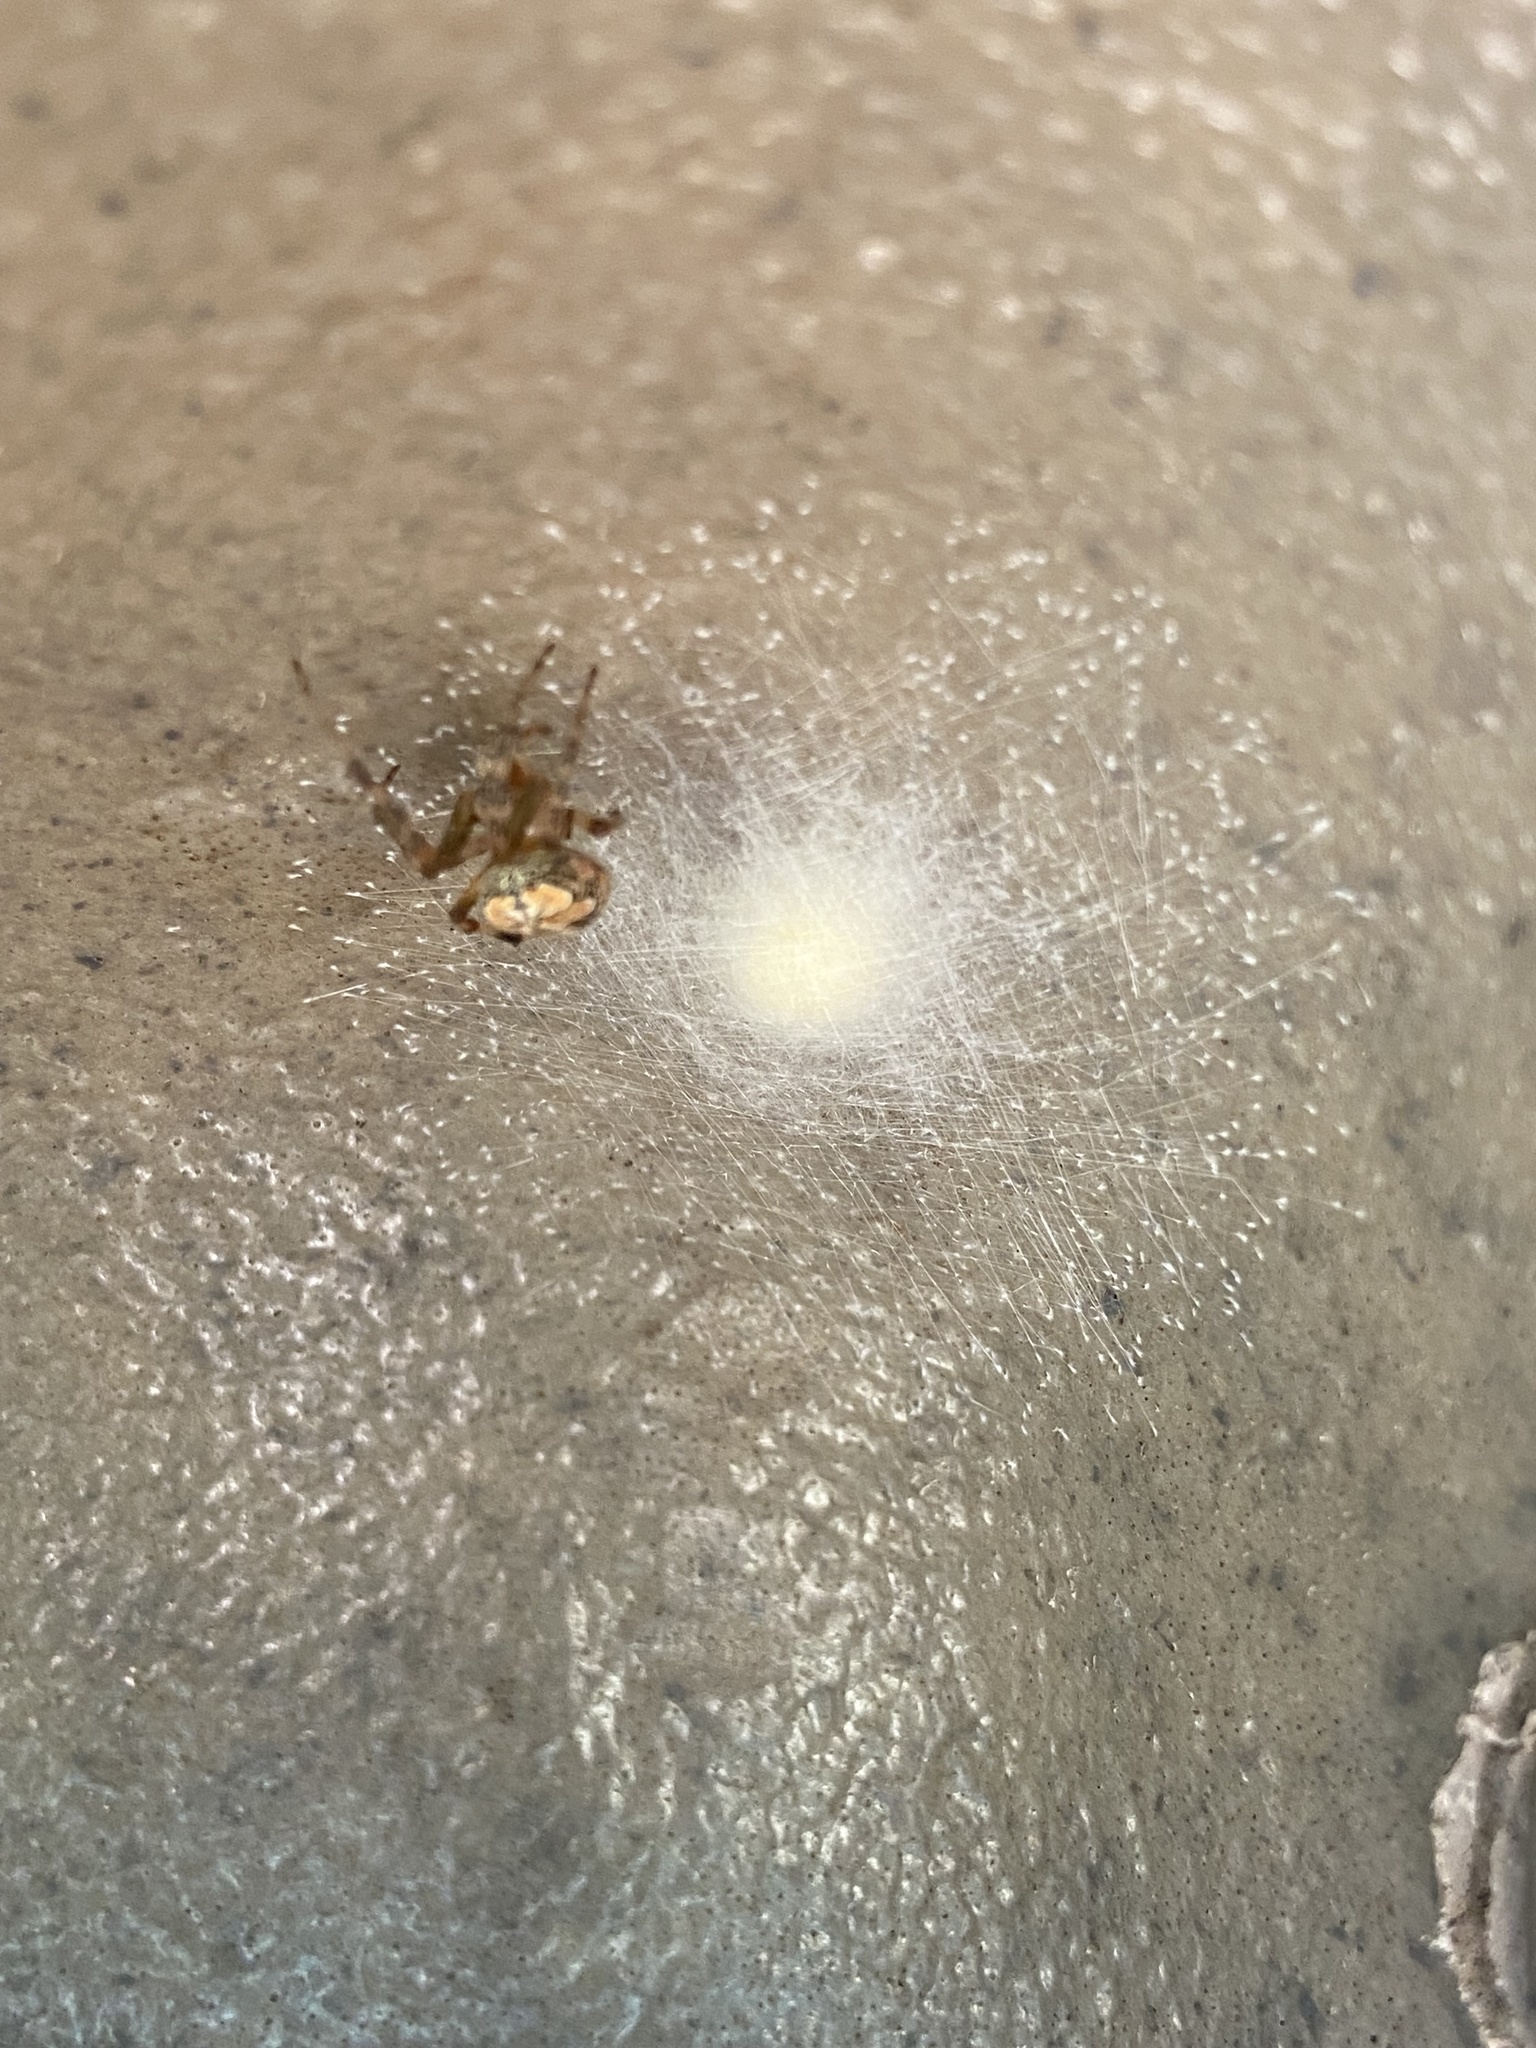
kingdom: Animalia
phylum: Arthropoda
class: Arachnida
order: Araneae
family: Araneidae
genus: Araneus
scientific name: Araneus pegnia
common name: Orb weavers
